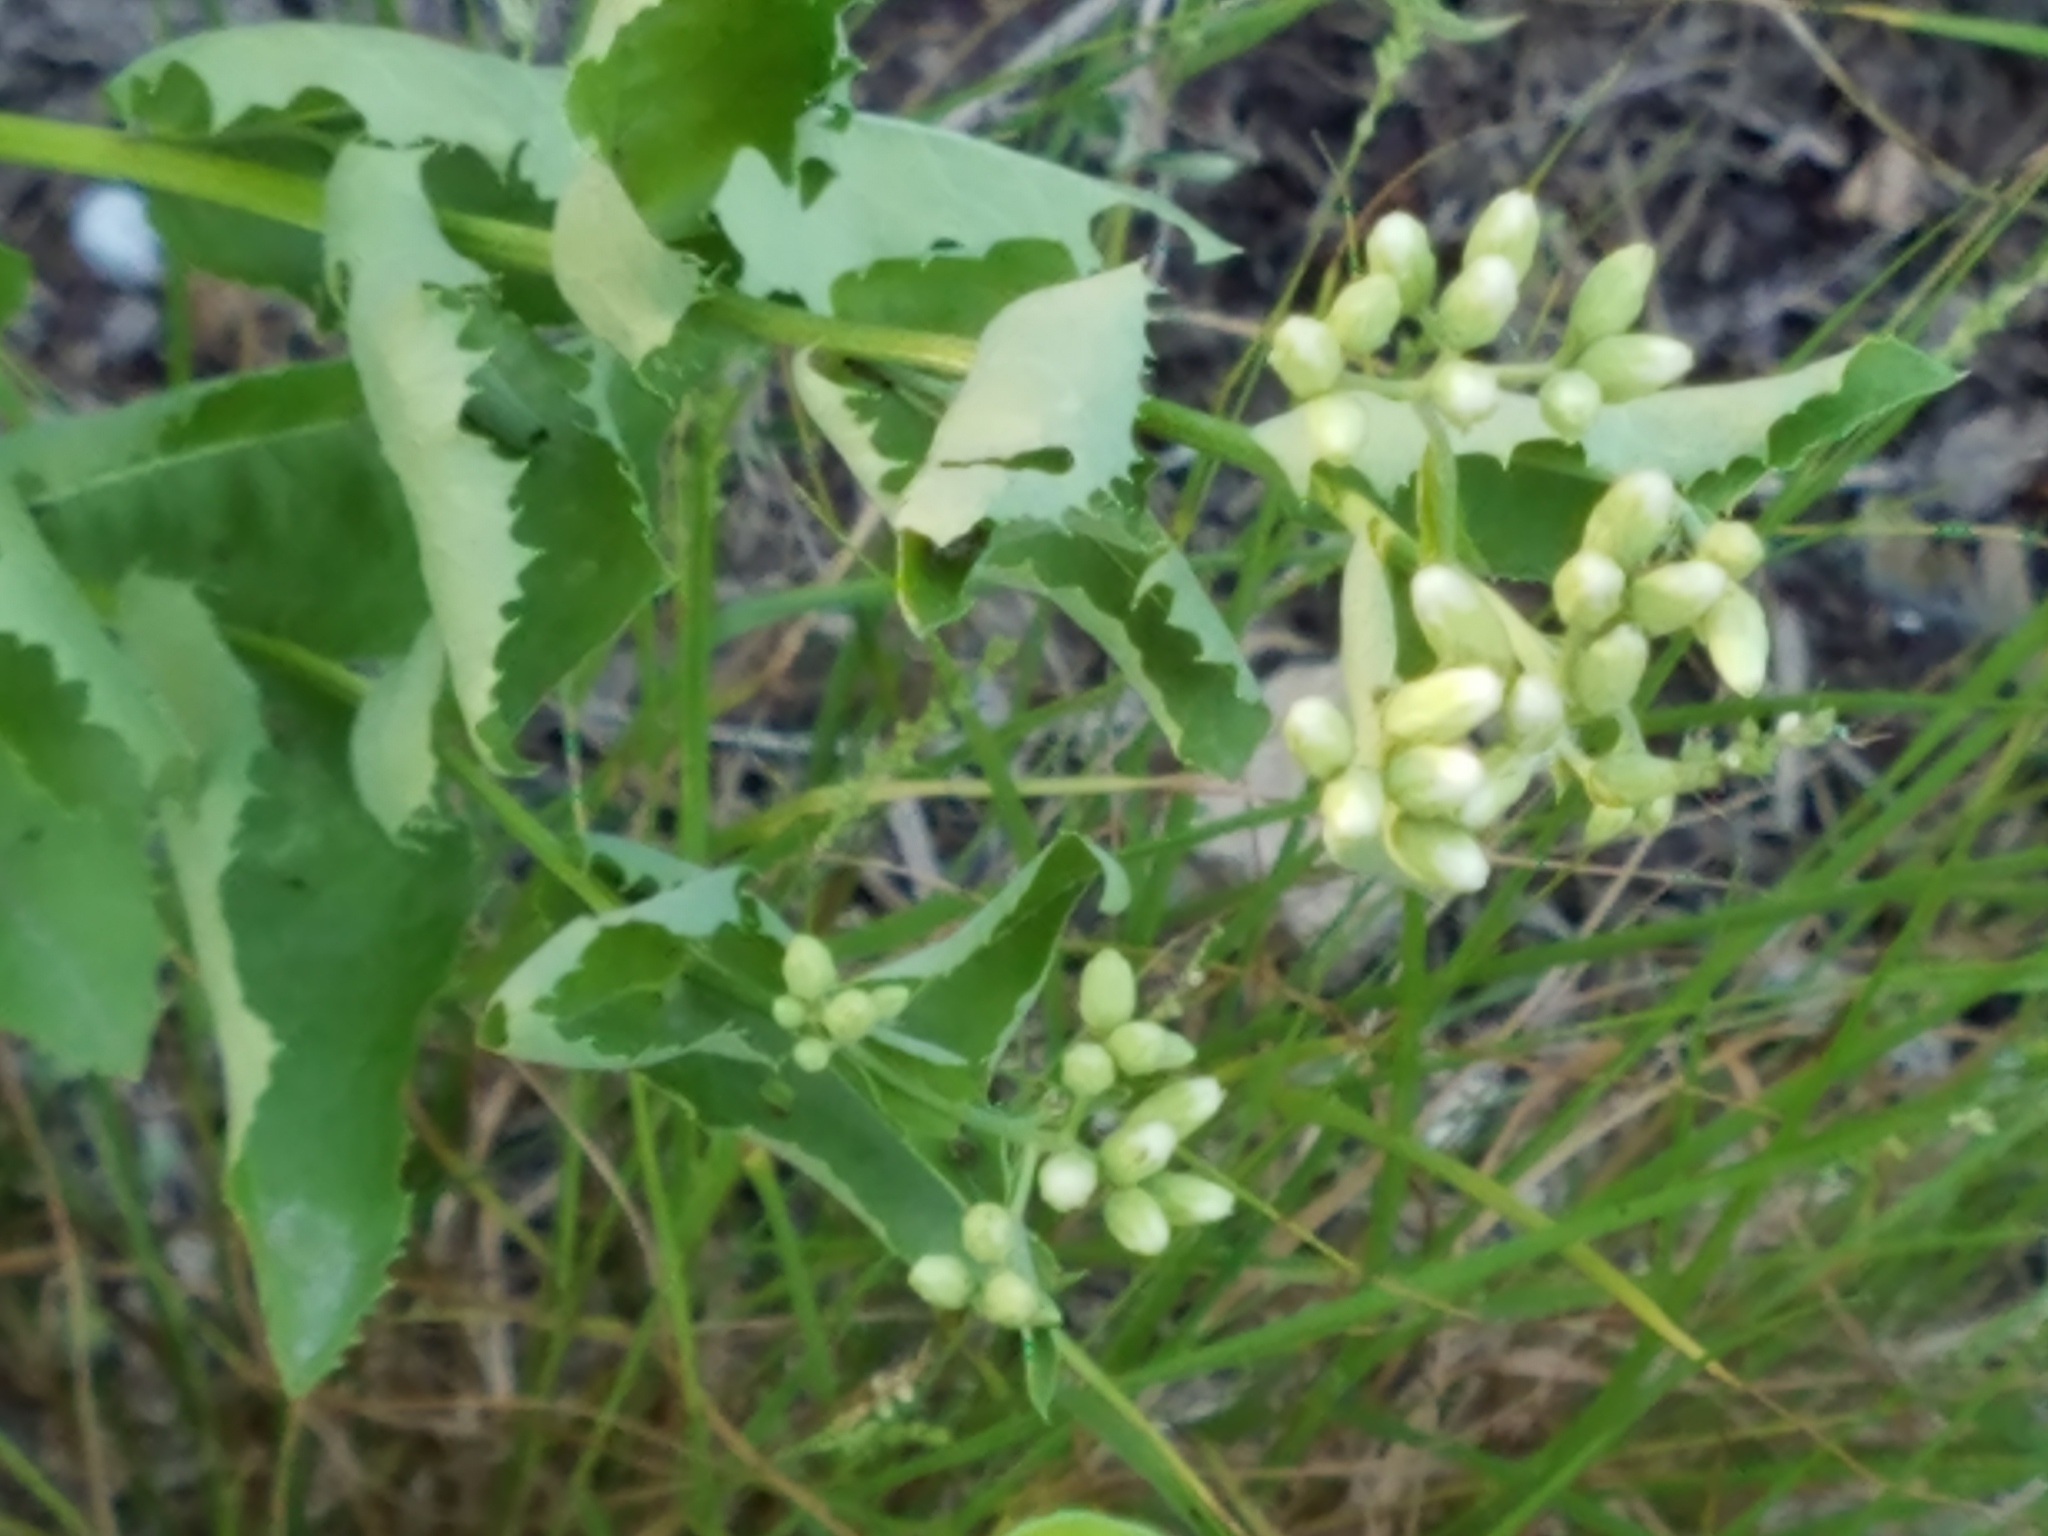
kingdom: Plantae
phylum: Tracheophyta
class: Magnoliopsida
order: Asterales
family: Asteraceae
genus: Acourtia
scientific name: Acourtia wrightii
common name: Brownfoot
